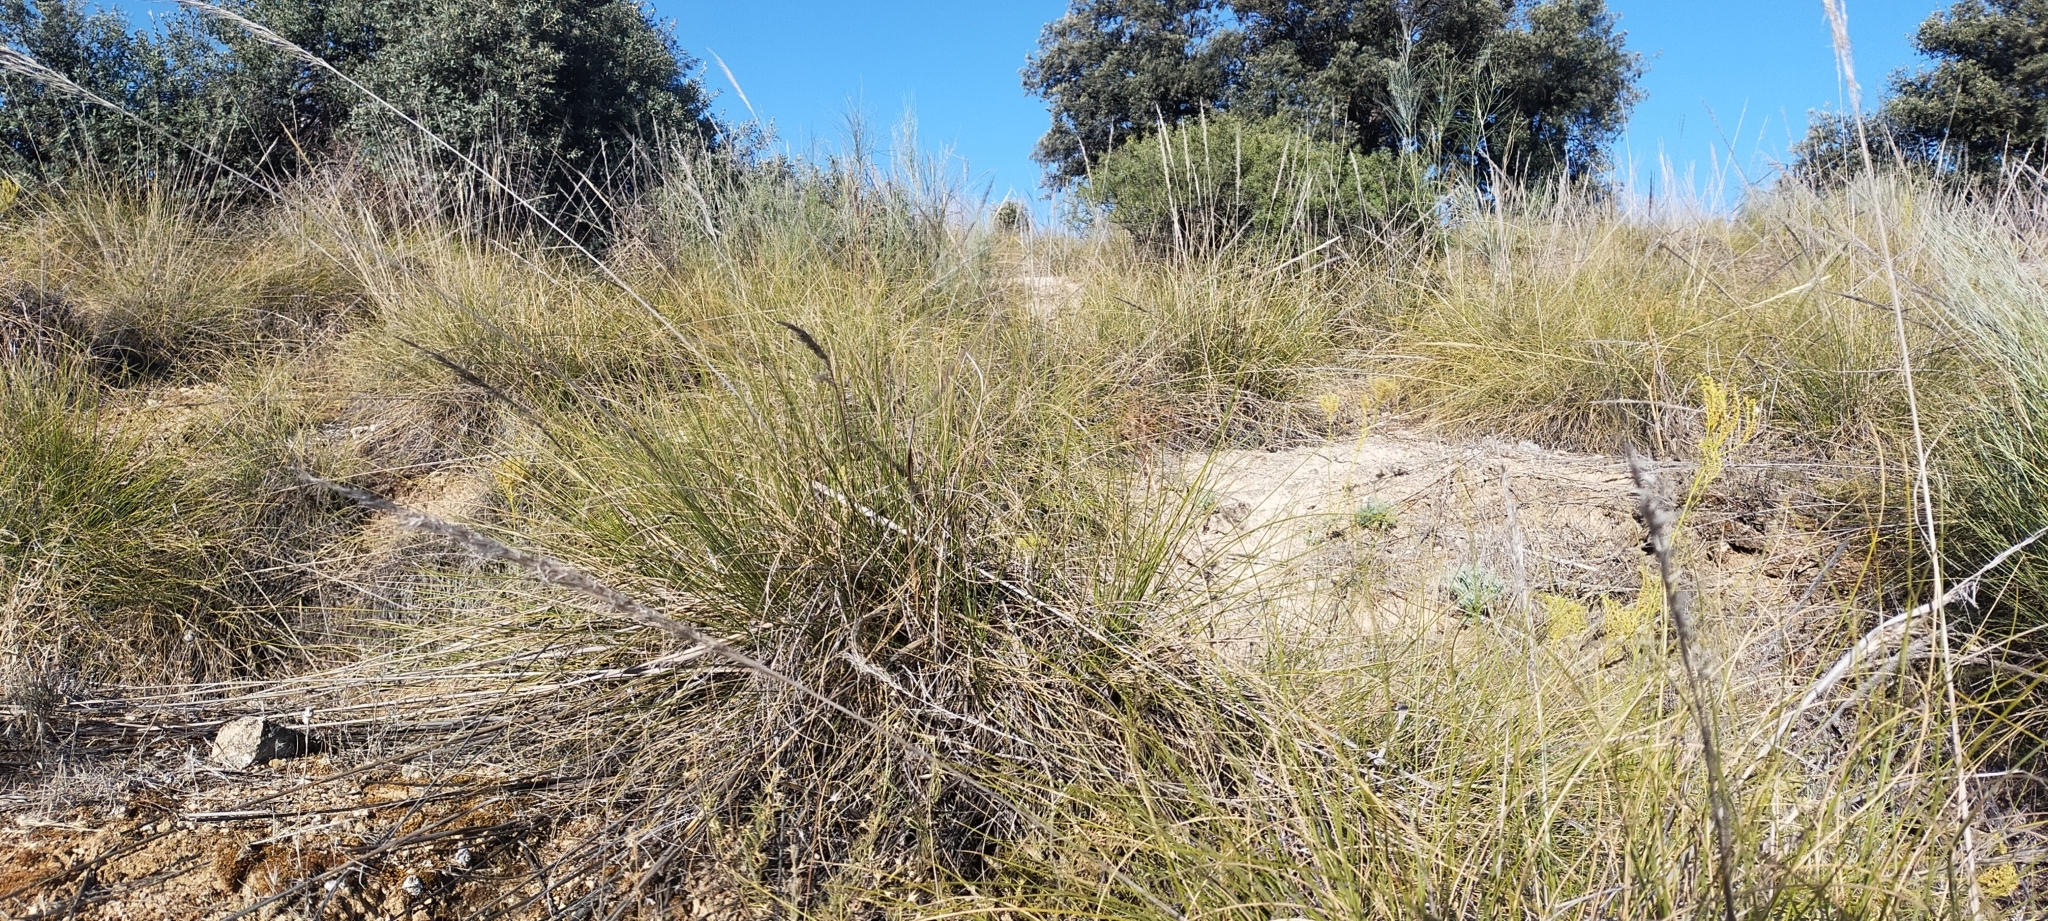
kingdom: Plantae
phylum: Tracheophyta
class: Liliopsida
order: Poales
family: Poaceae
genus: Macrochloa
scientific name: Macrochloa tenacissima
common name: Alfa grass
